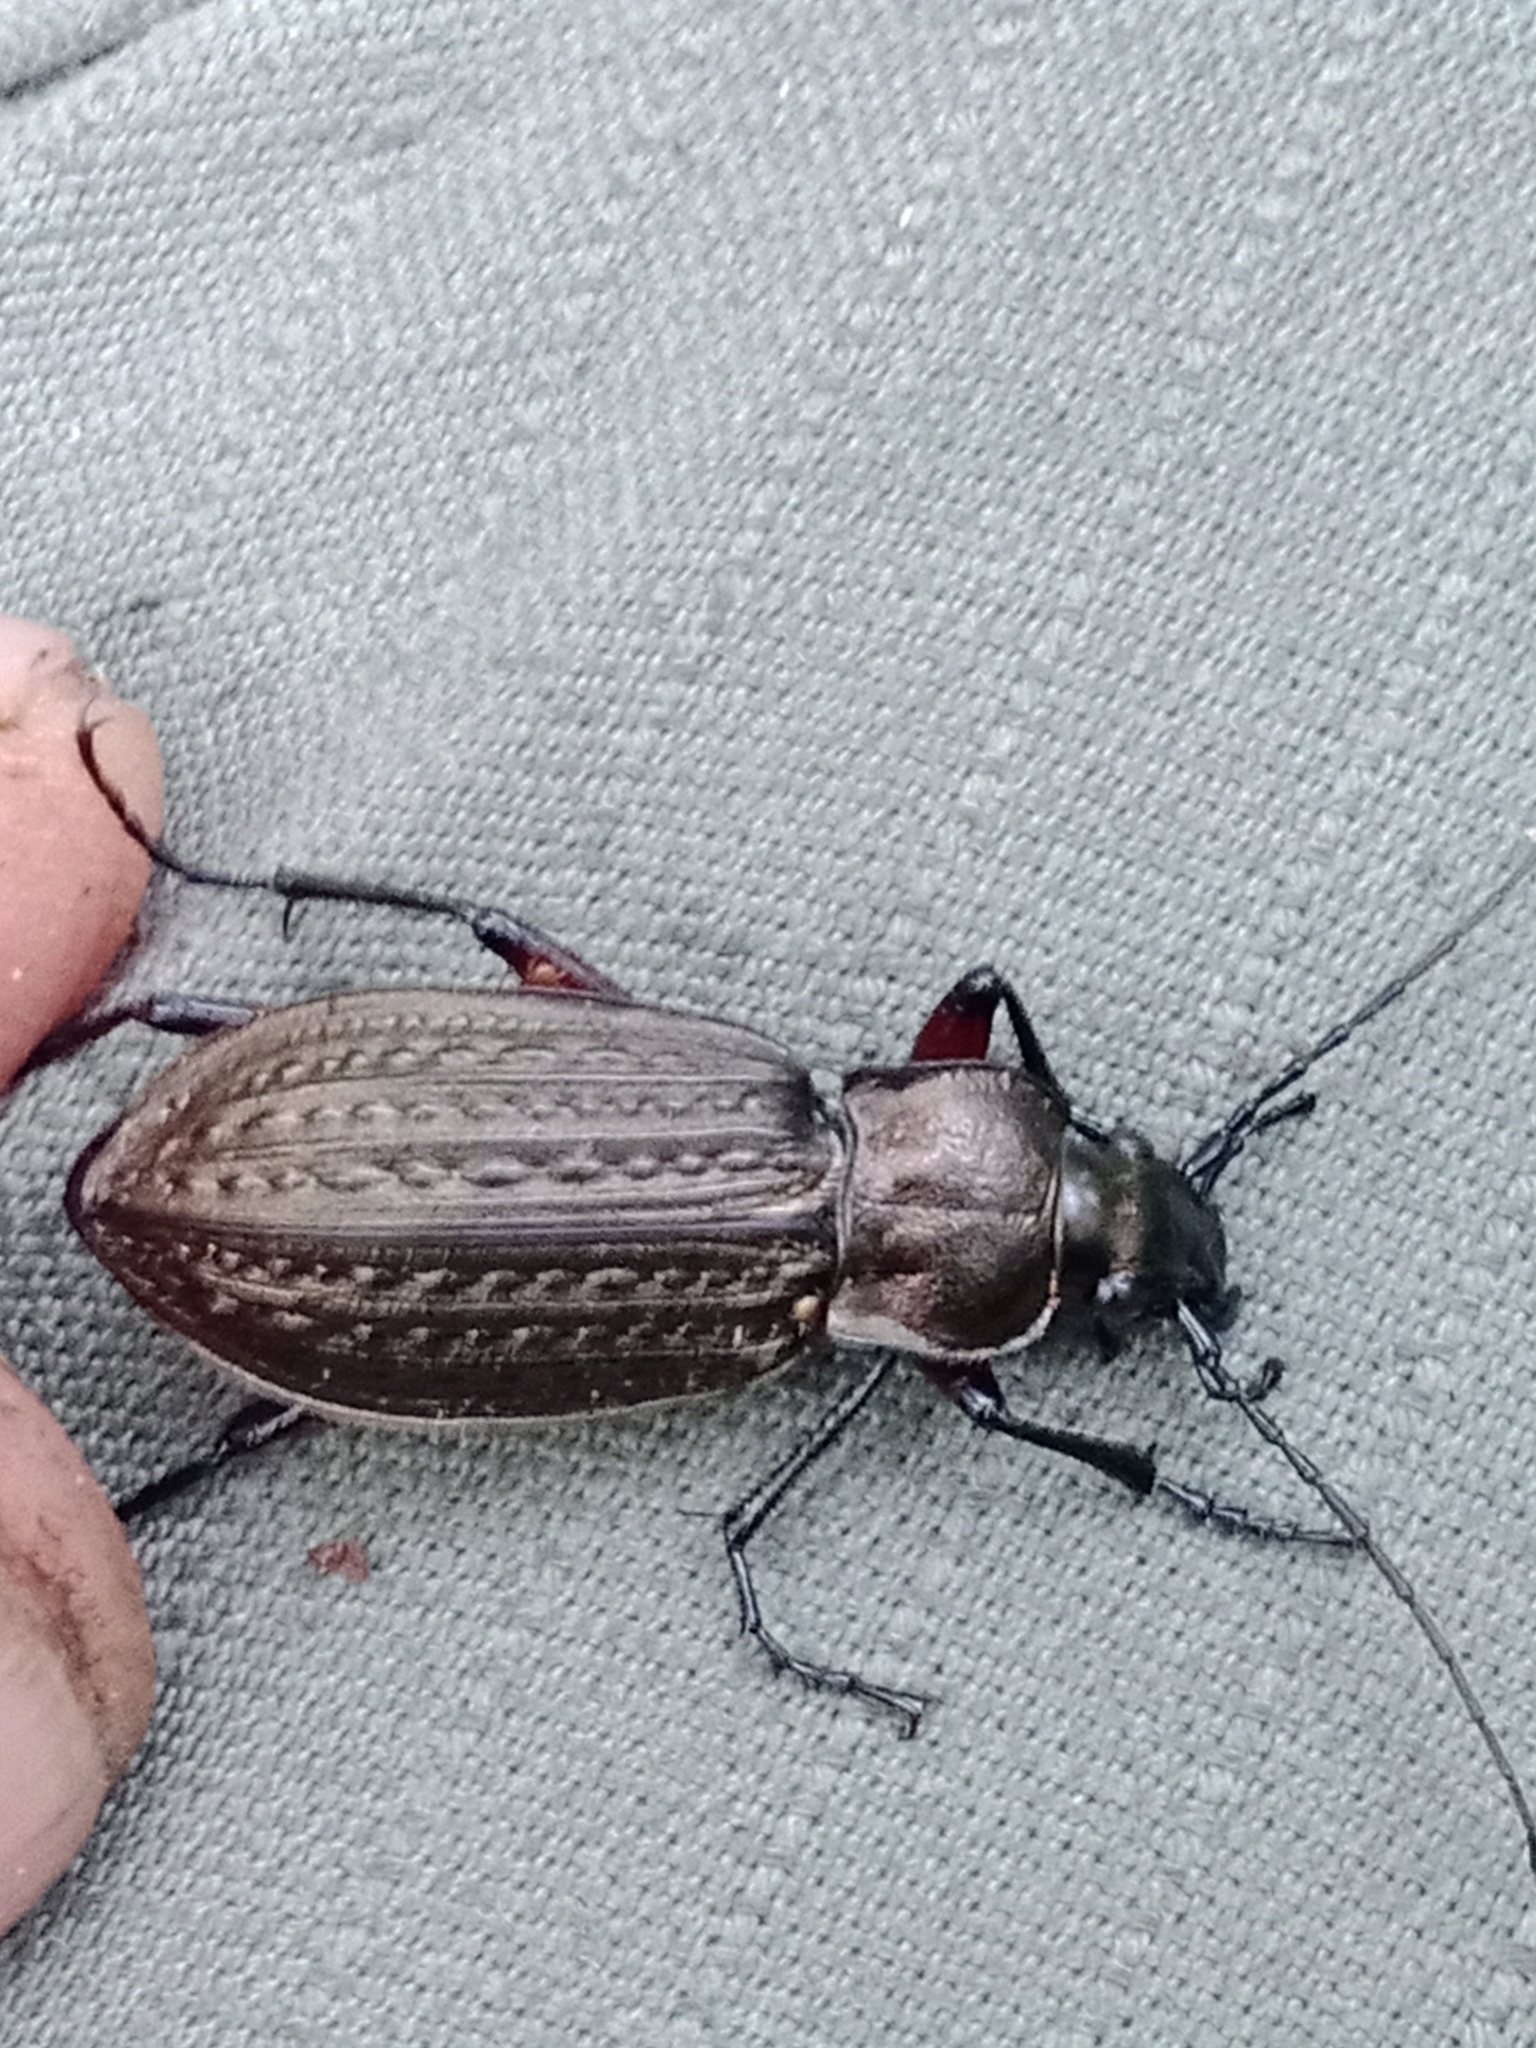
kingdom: Animalia
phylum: Arthropoda
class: Insecta
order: Coleoptera
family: Carabidae
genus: Carabus
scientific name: Carabus granulatus
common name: Granulate ground beetle
